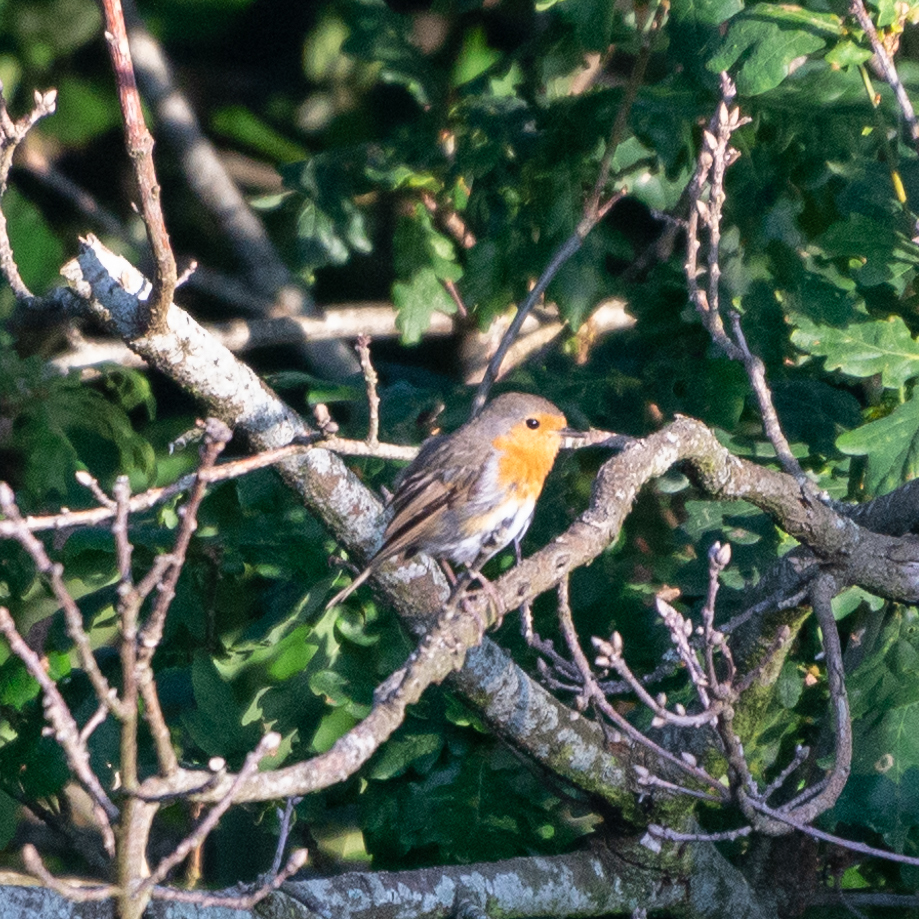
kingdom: Animalia
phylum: Chordata
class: Aves
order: Passeriformes
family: Muscicapidae
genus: Erithacus
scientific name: Erithacus rubecula
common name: European robin
